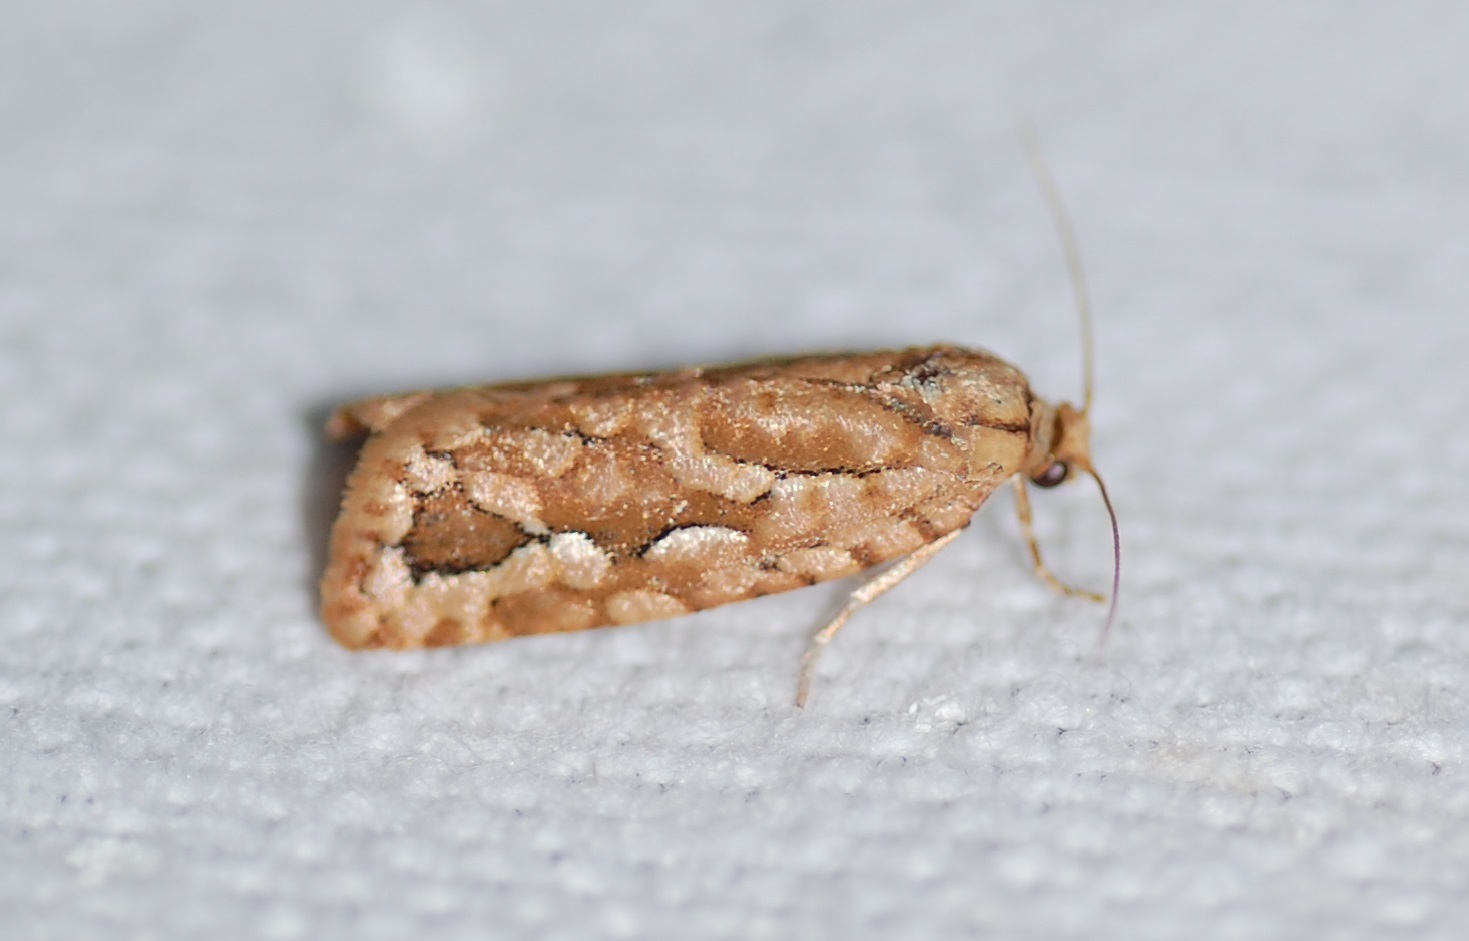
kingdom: Animalia
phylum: Arthropoda
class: Insecta
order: Lepidoptera
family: Tortricidae
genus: Diedra
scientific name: Diedra cockerellana
